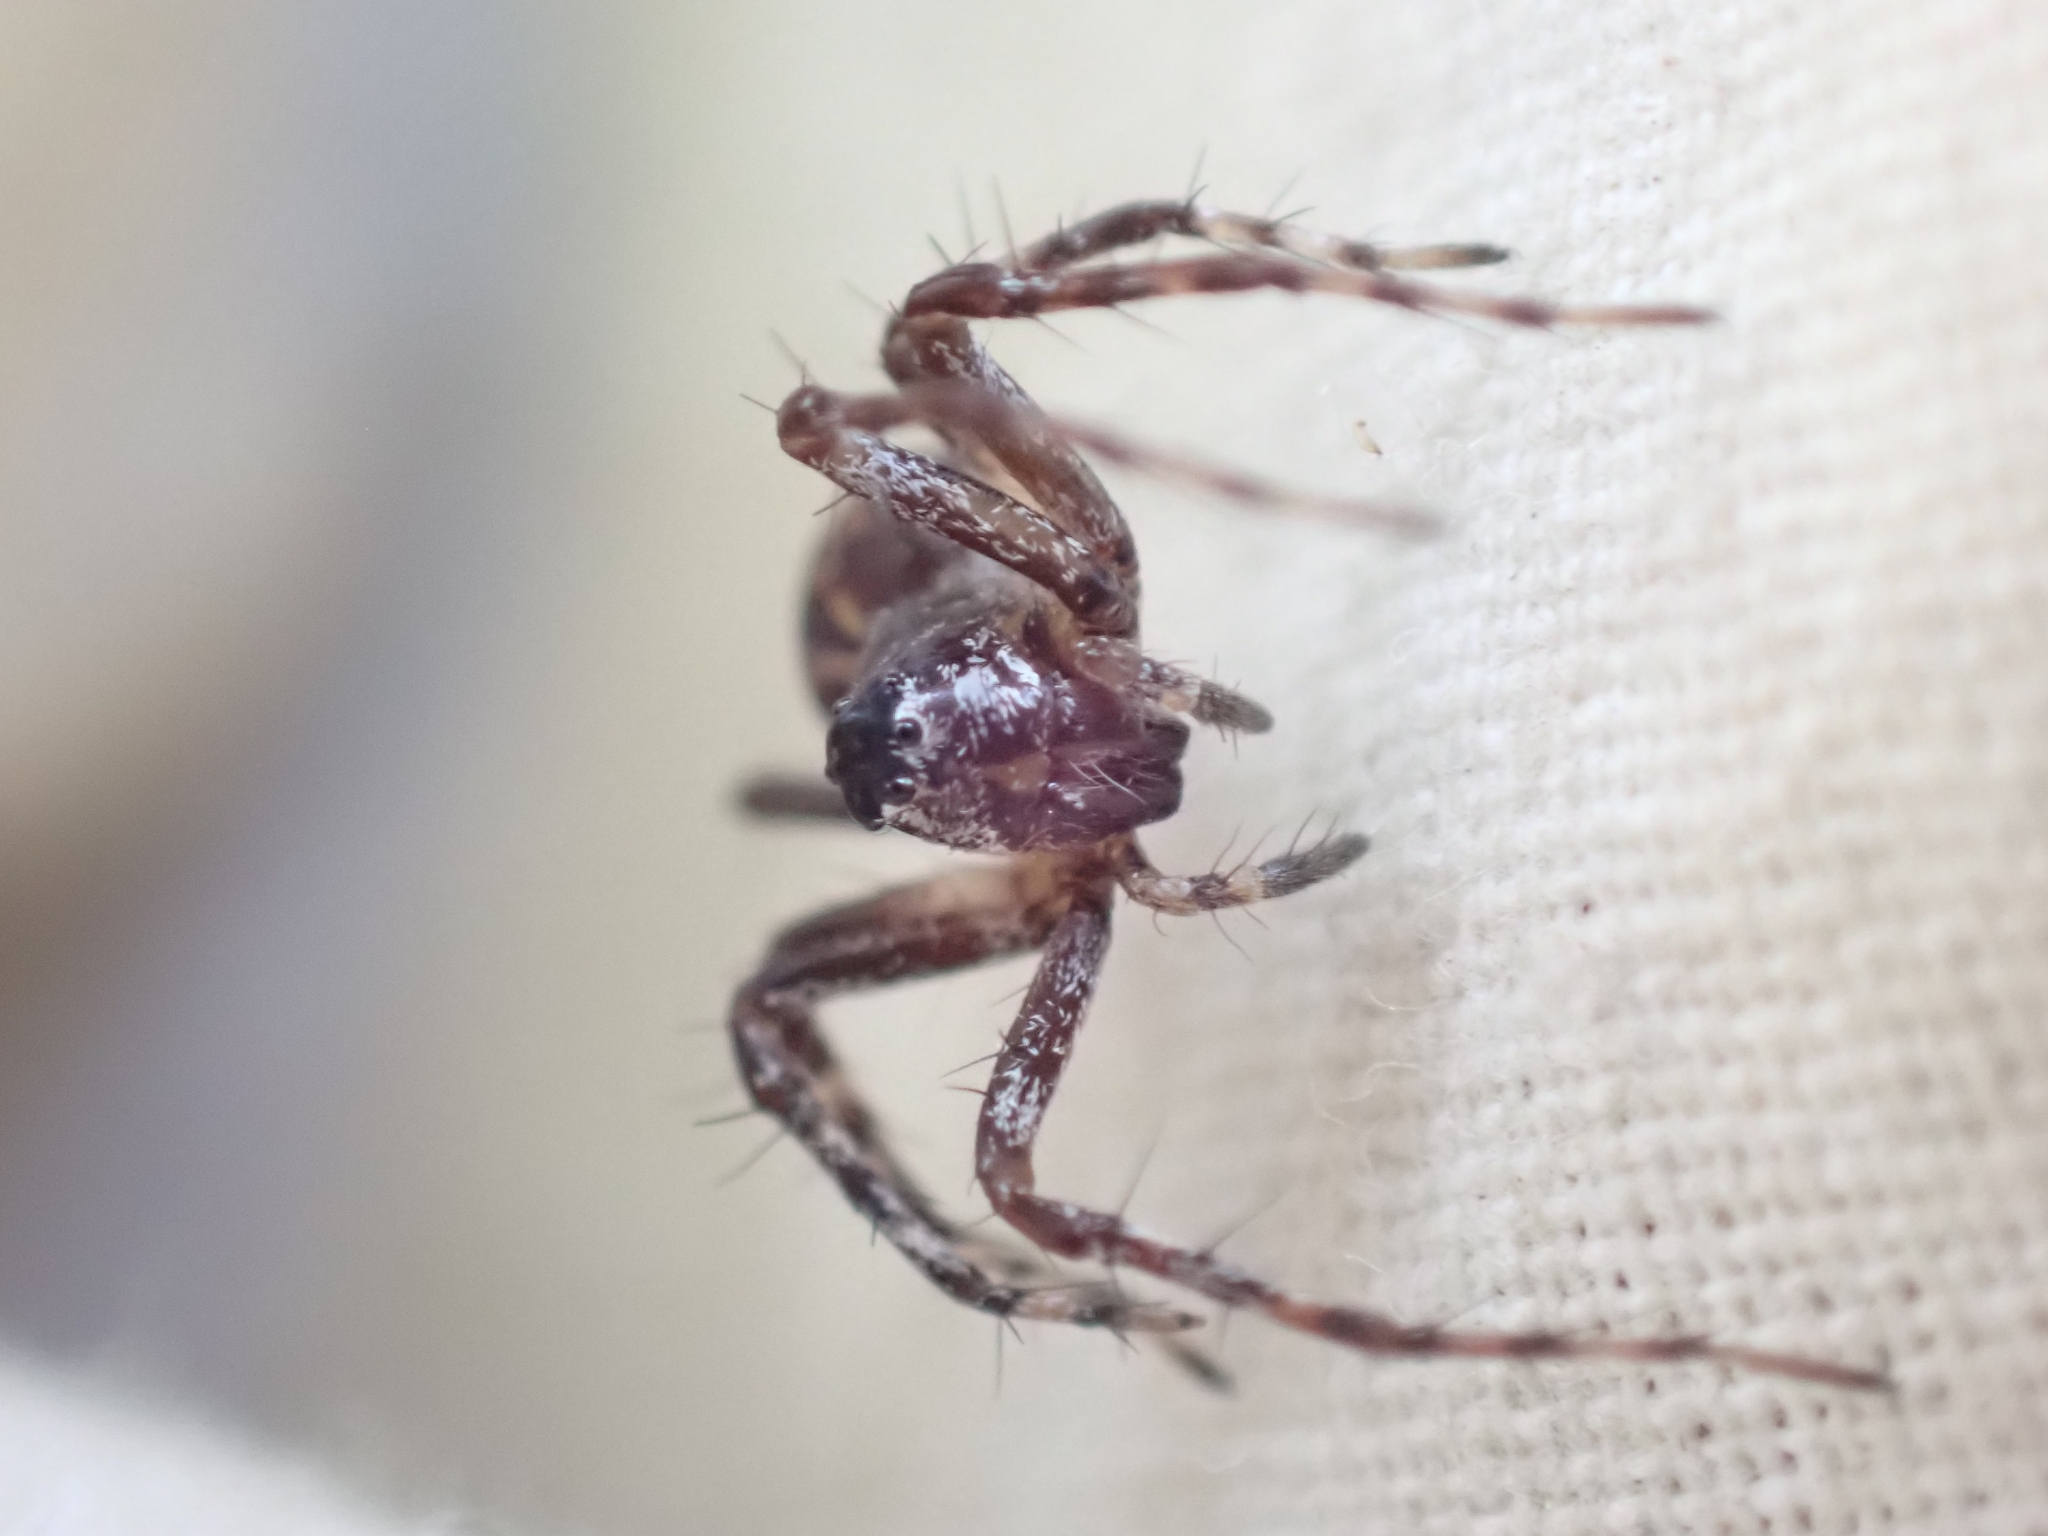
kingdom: Animalia
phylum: Arthropoda
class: Arachnida
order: Araneae
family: Oxyopidae
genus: Oxyopes
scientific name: Oxyopes scalaris
